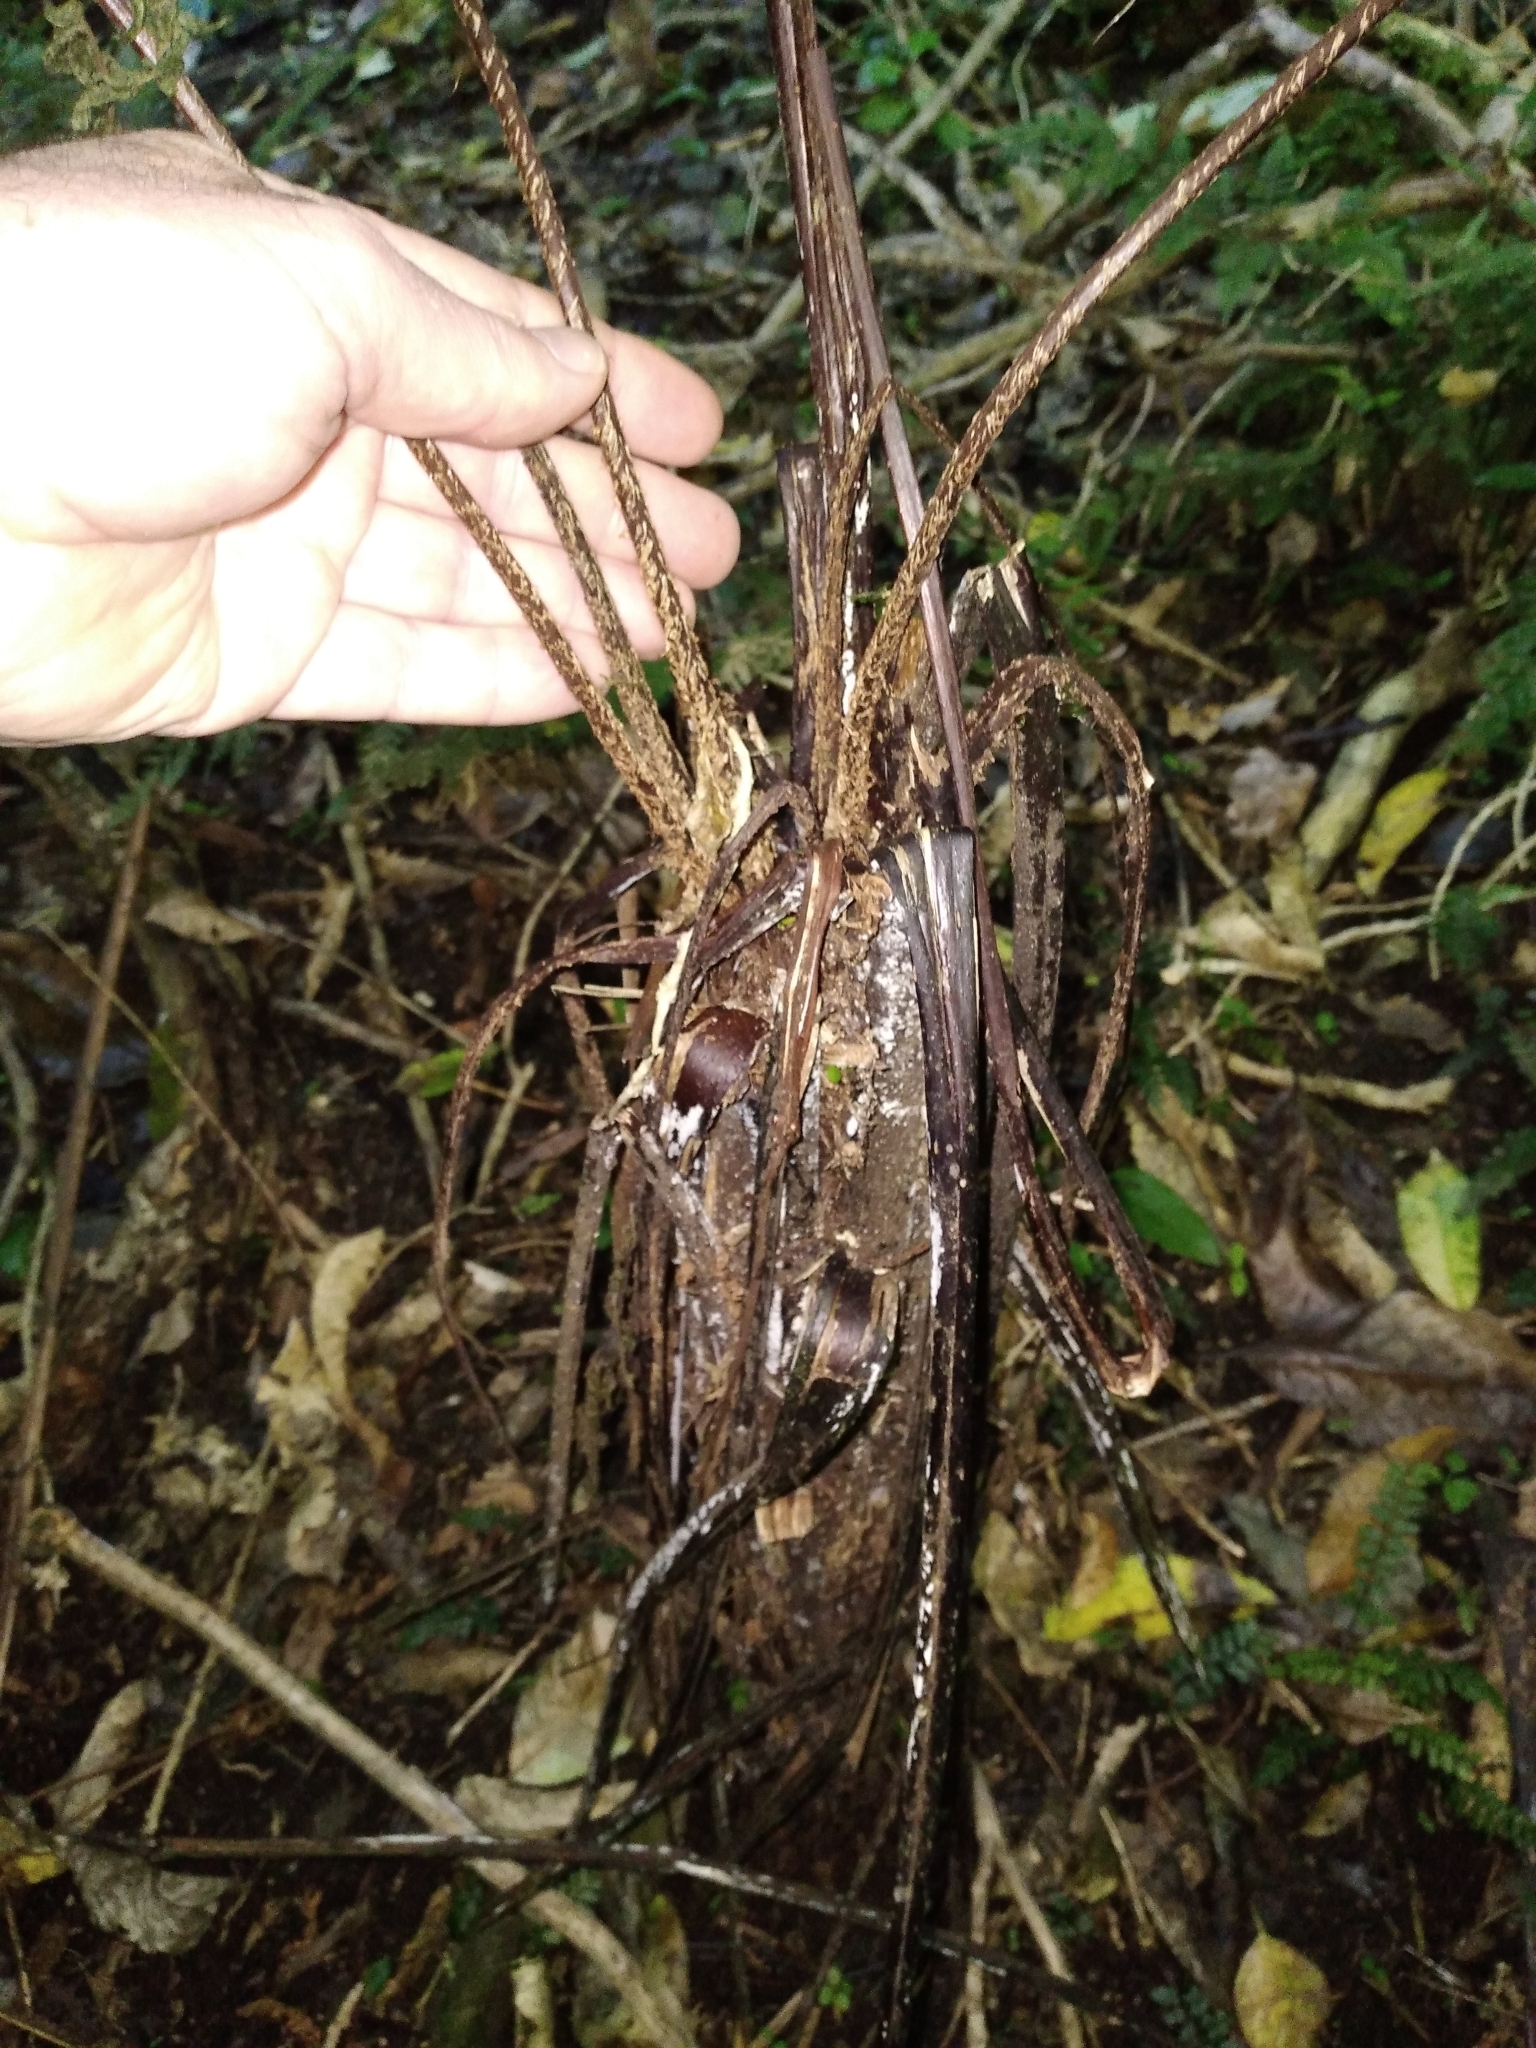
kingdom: Plantae
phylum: Tracheophyta
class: Polypodiopsida
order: Cyatheales
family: Cyatheaceae
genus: Cyathea
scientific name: Cyathea cunninghamii
